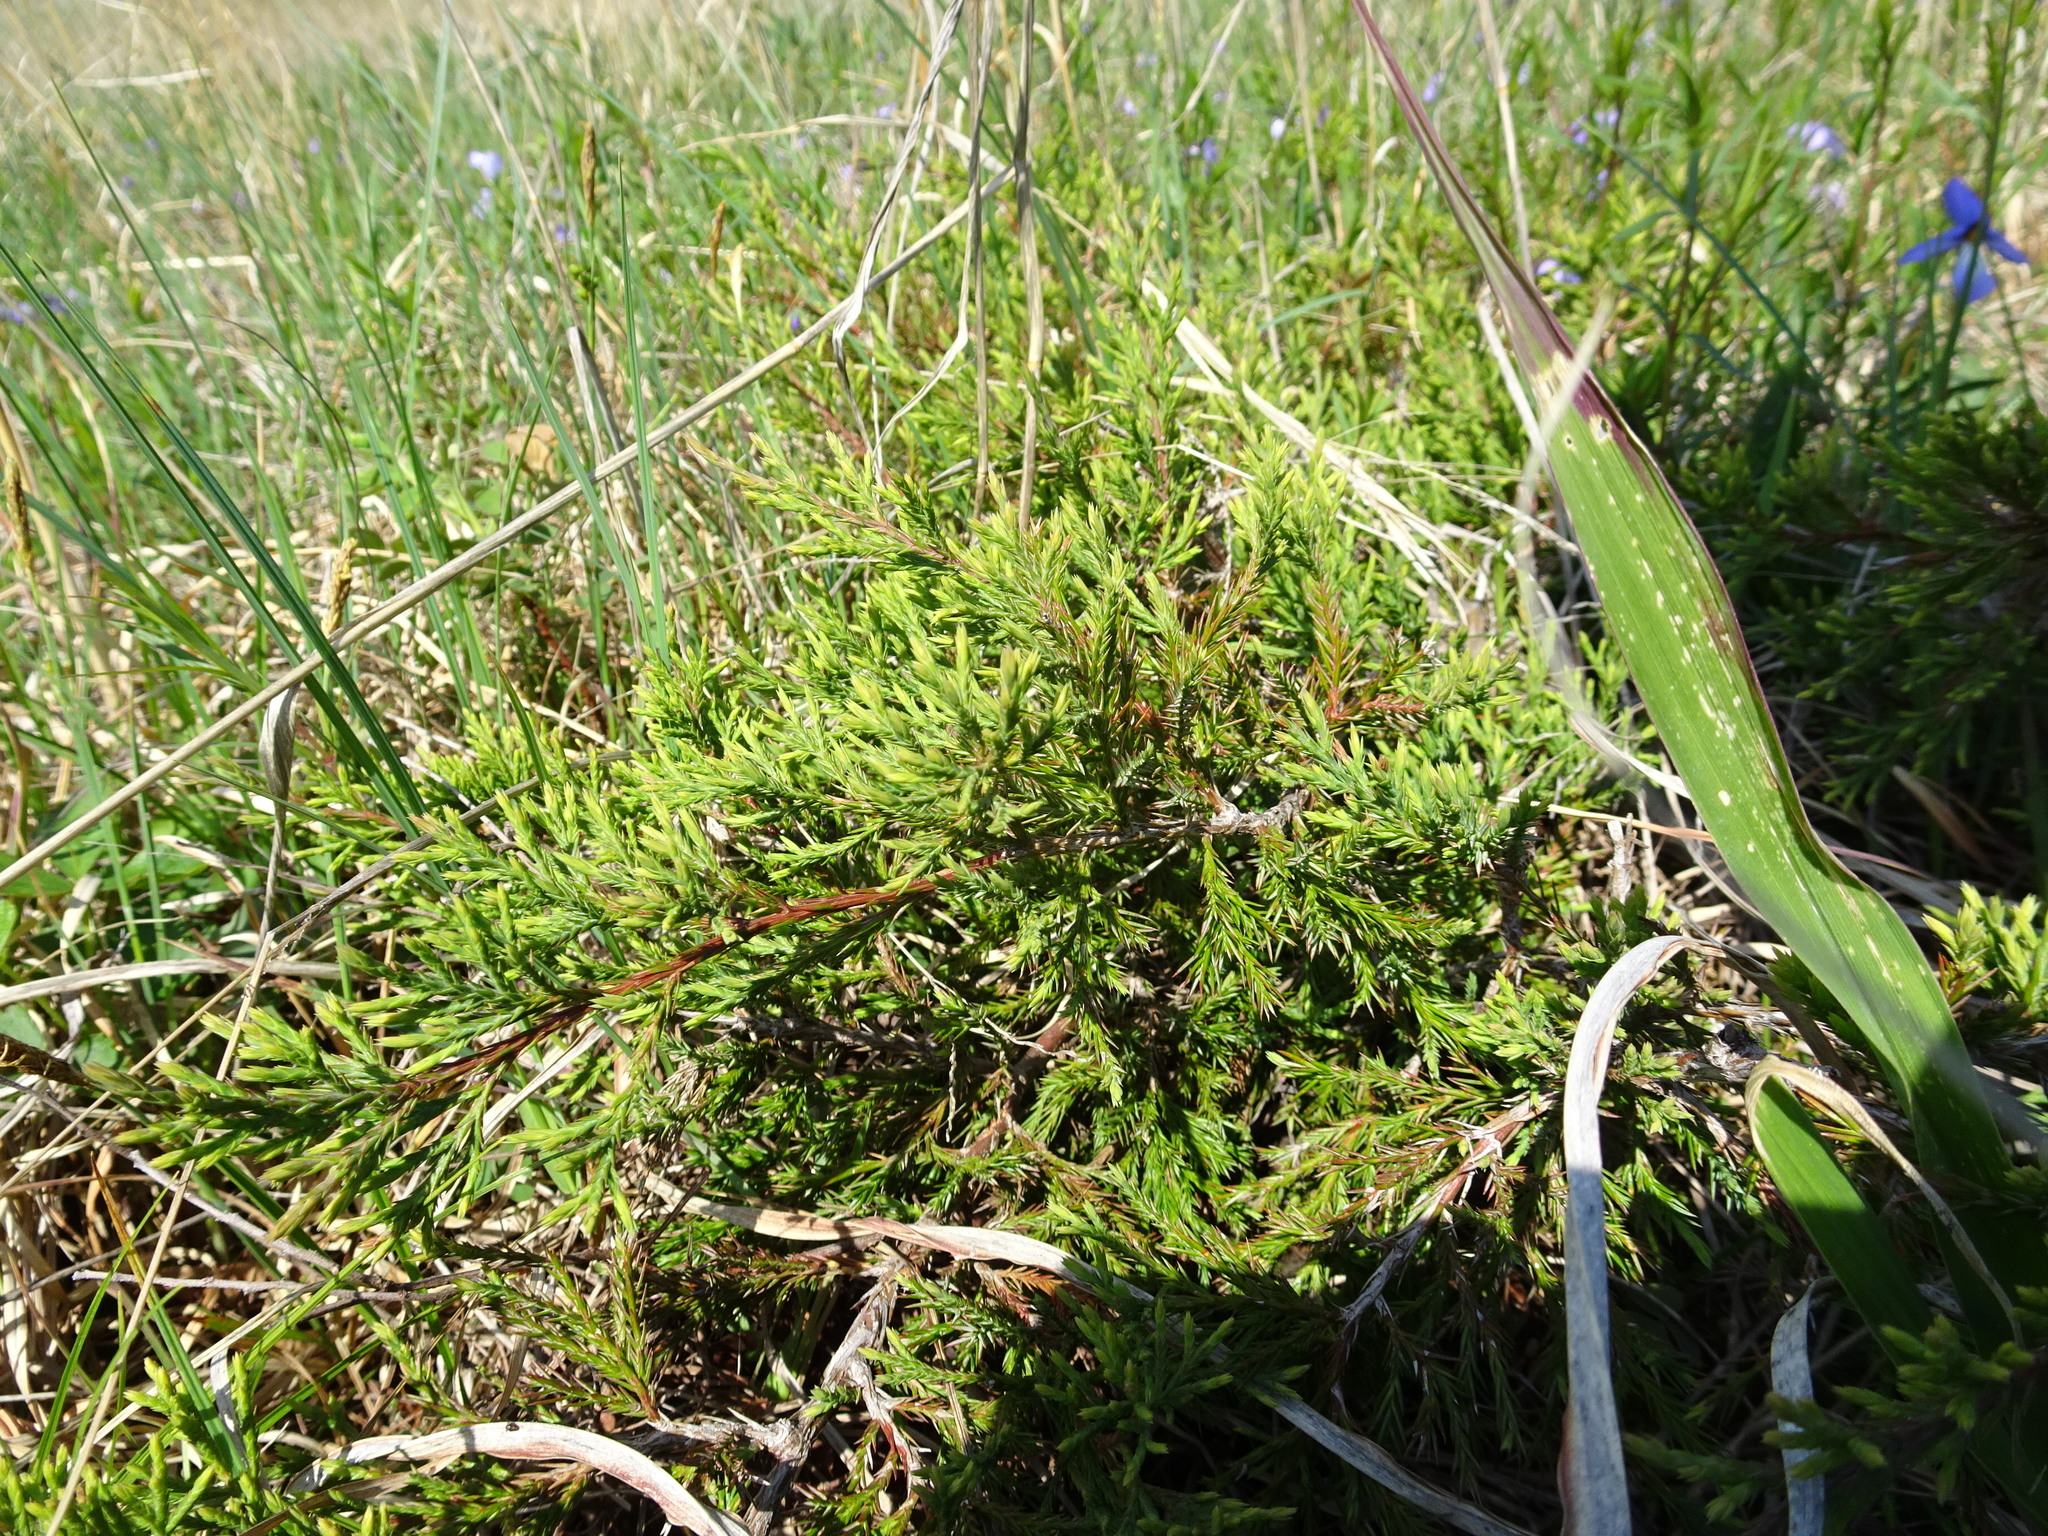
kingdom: Plantae
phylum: Tracheophyta
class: Pinopsida
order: Pinales
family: Cupressaceae
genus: Juniperus
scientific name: Juniperus virginiana
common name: Red juniper
